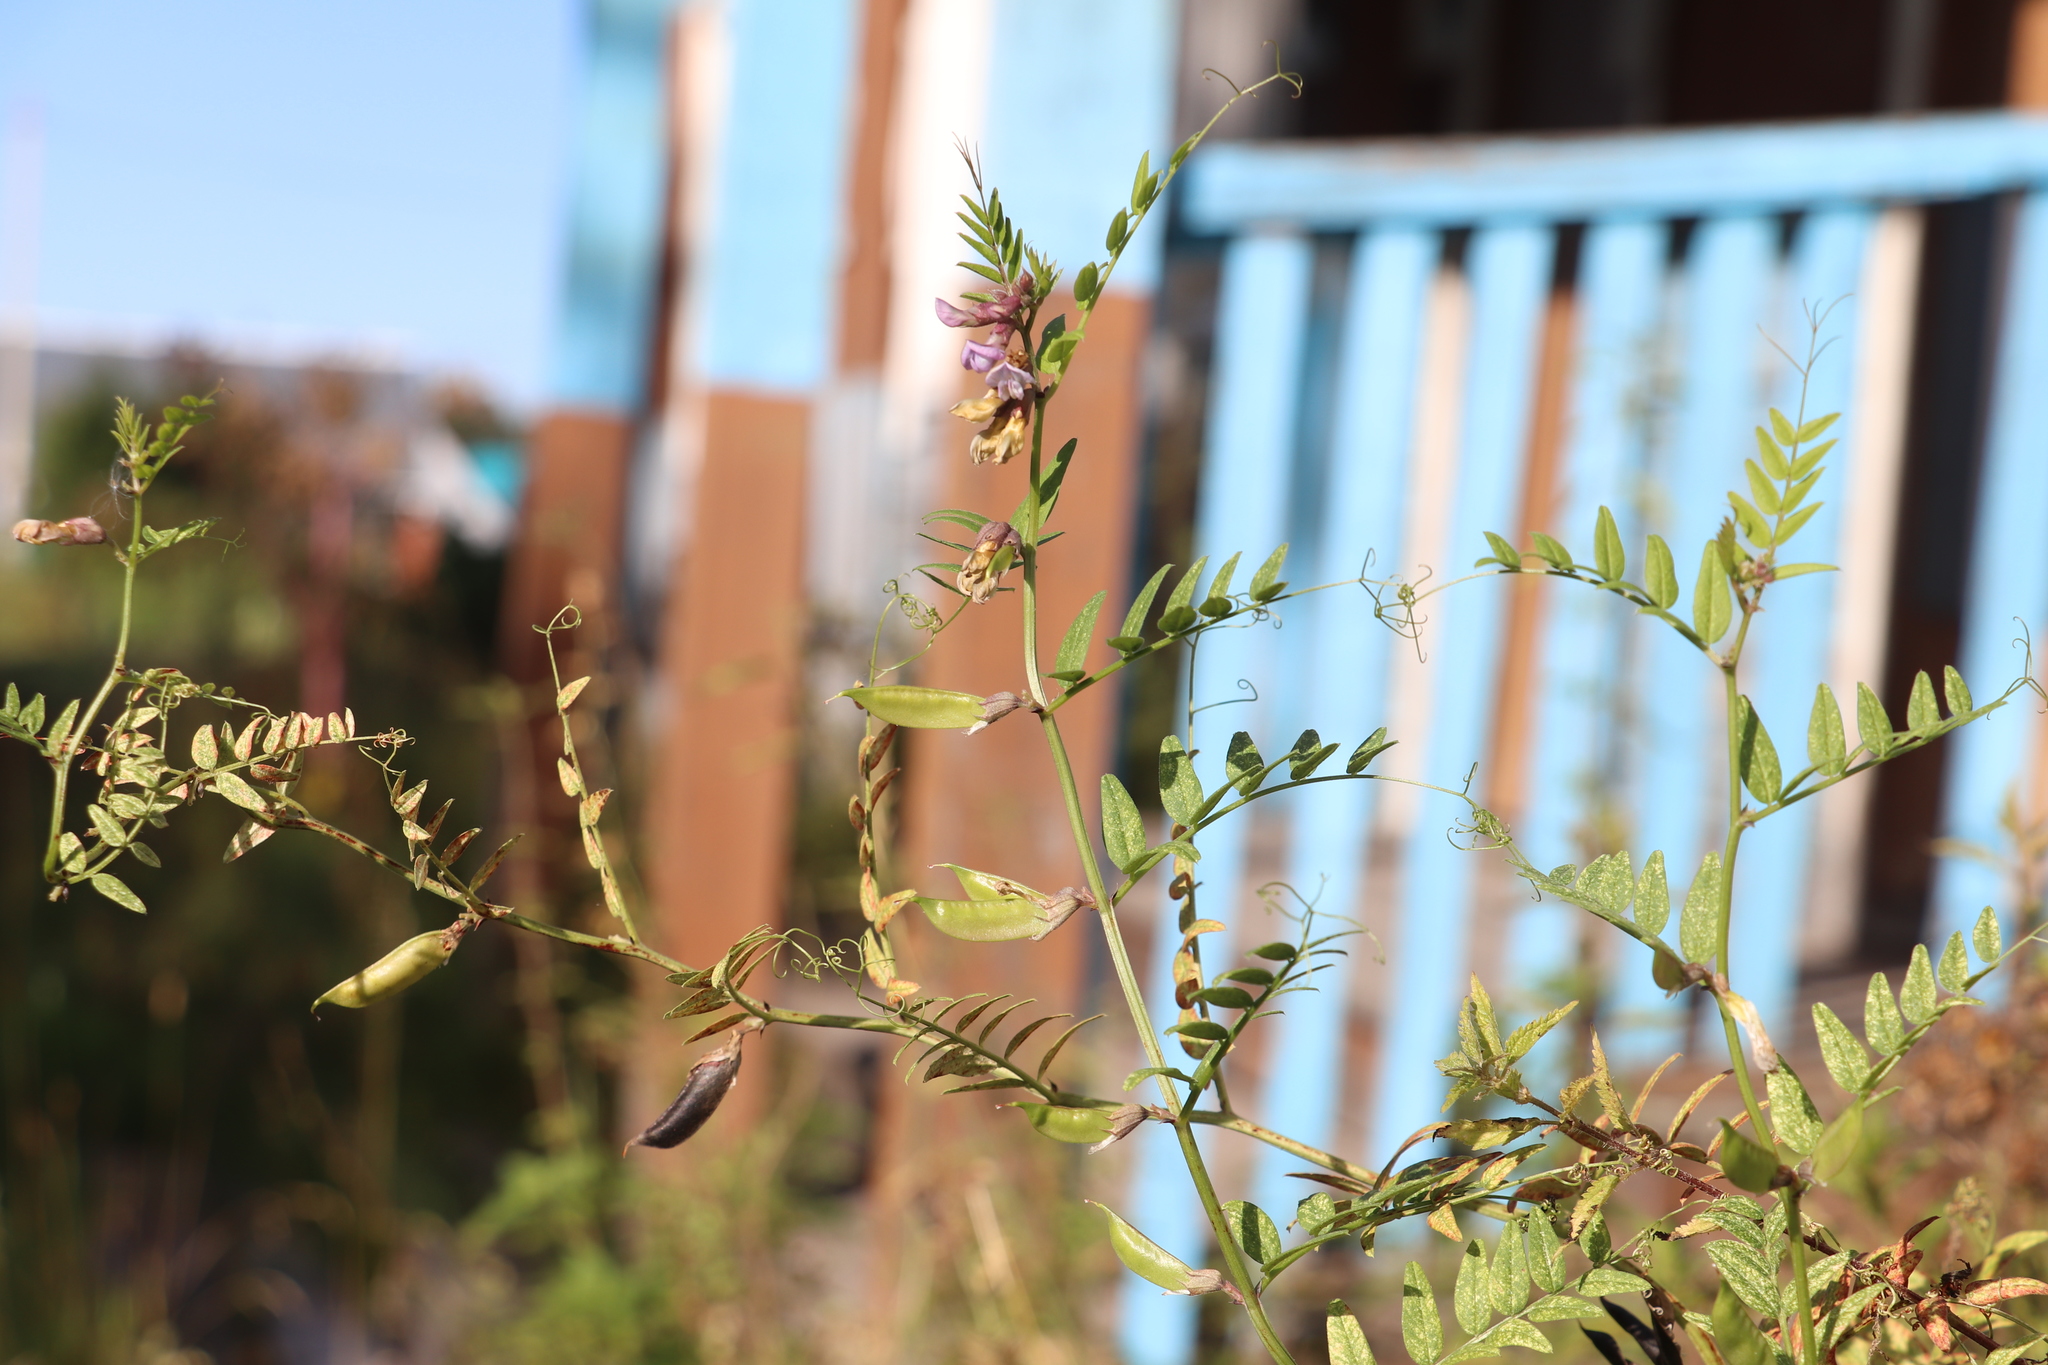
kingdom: Plantae
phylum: Tracheophyta
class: Magnoliopsida
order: Fabales
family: Fabaceae
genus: Vicia
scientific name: Vicia sepium
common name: Bush vetch
